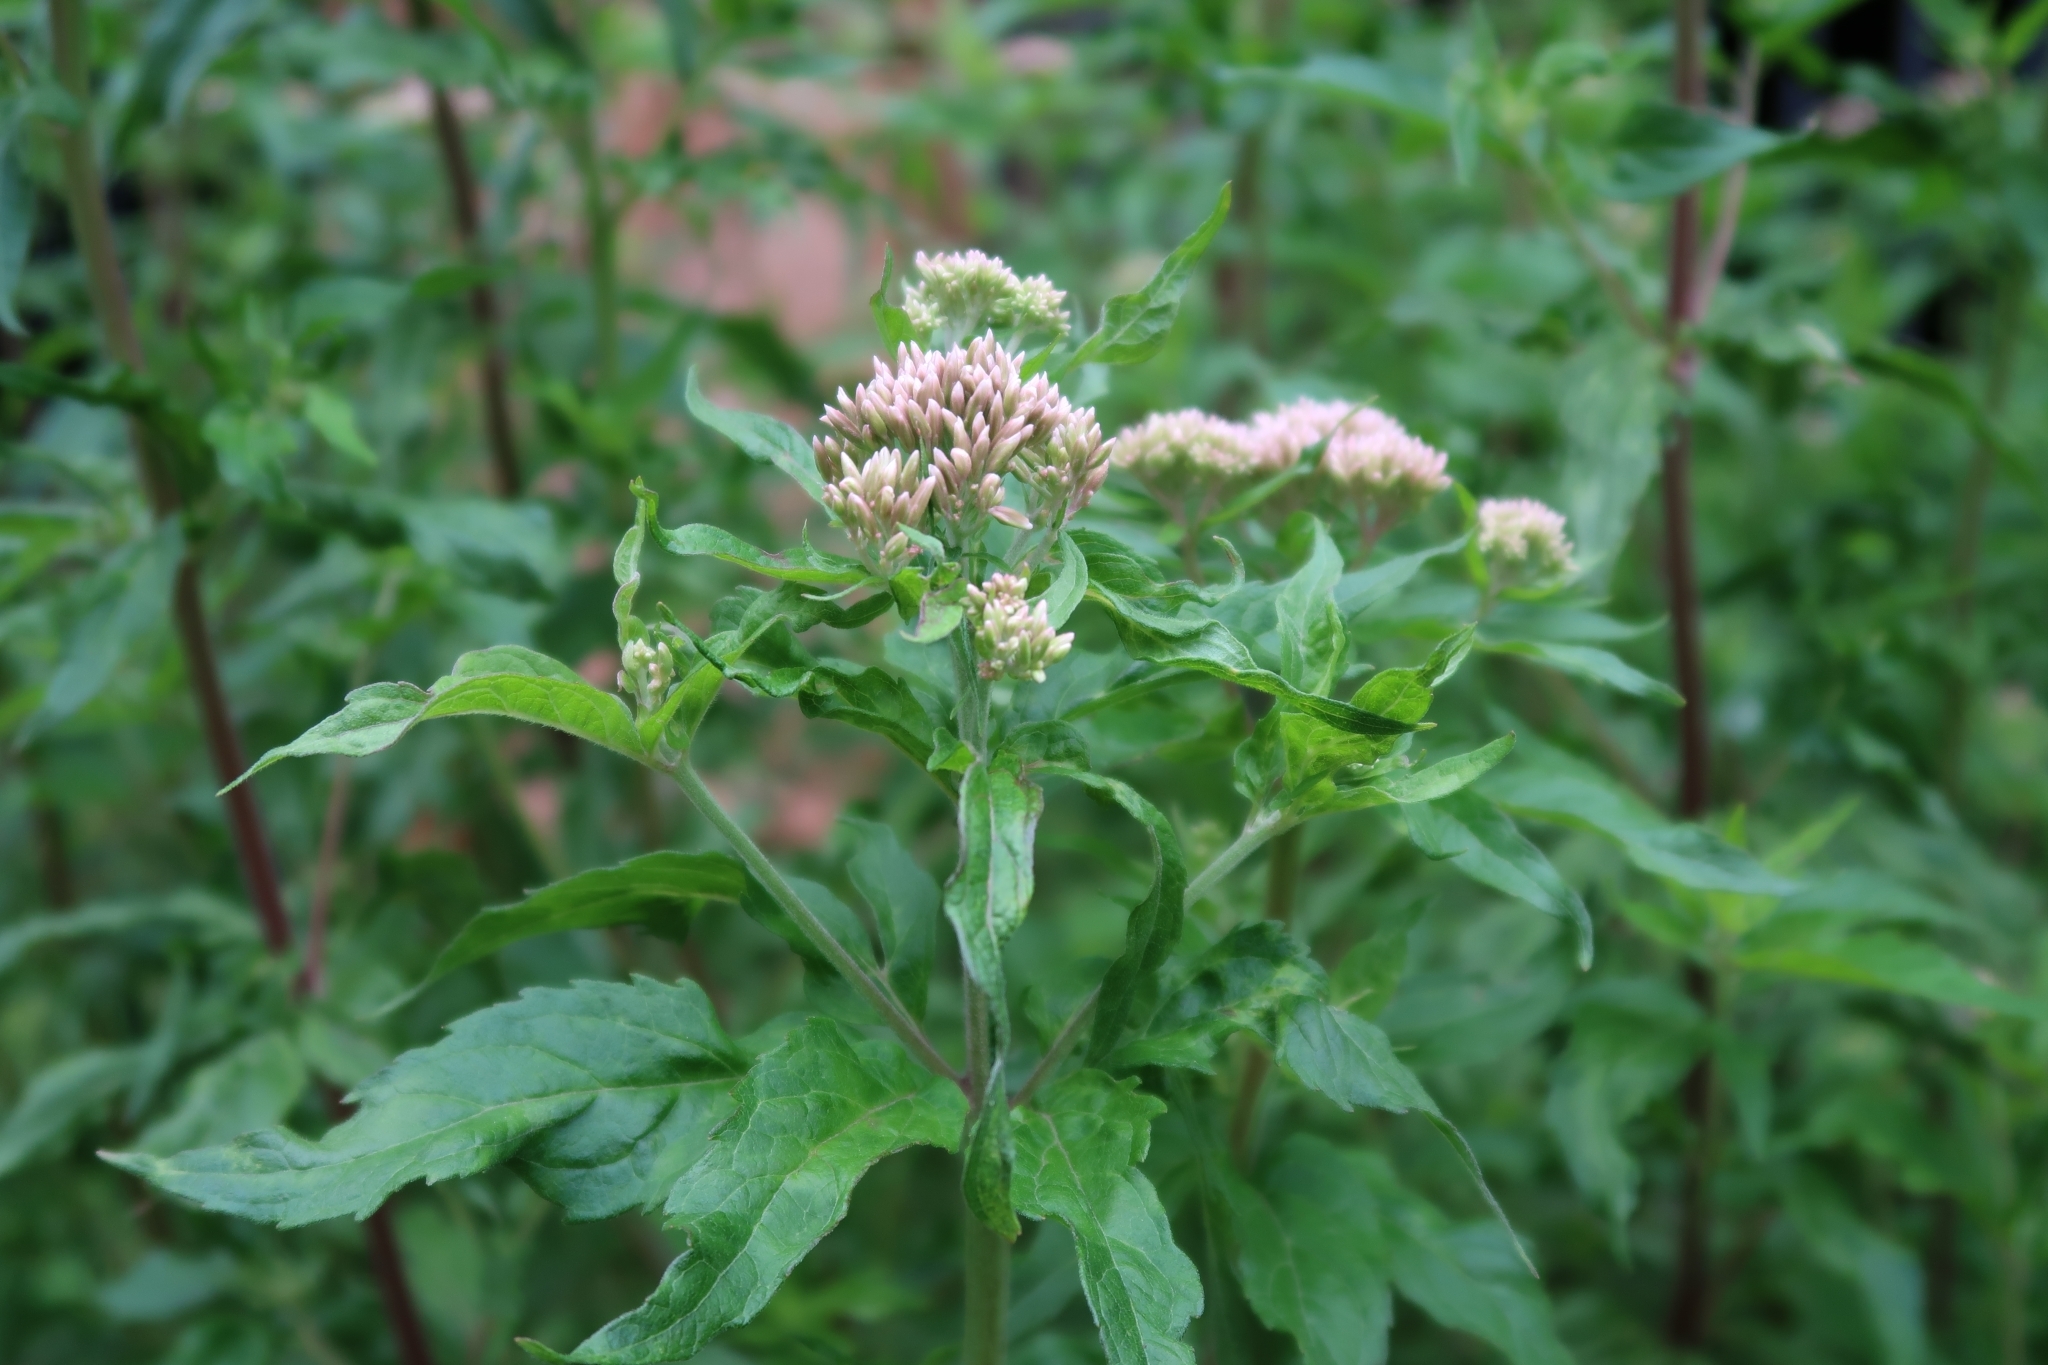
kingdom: Plantae
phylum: Tracheophyta
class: Magnoliopsida
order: Asterales
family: Asteraceae
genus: Eupatorium
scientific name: Eupatorium cannabinum
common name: Hemp-agrimony
